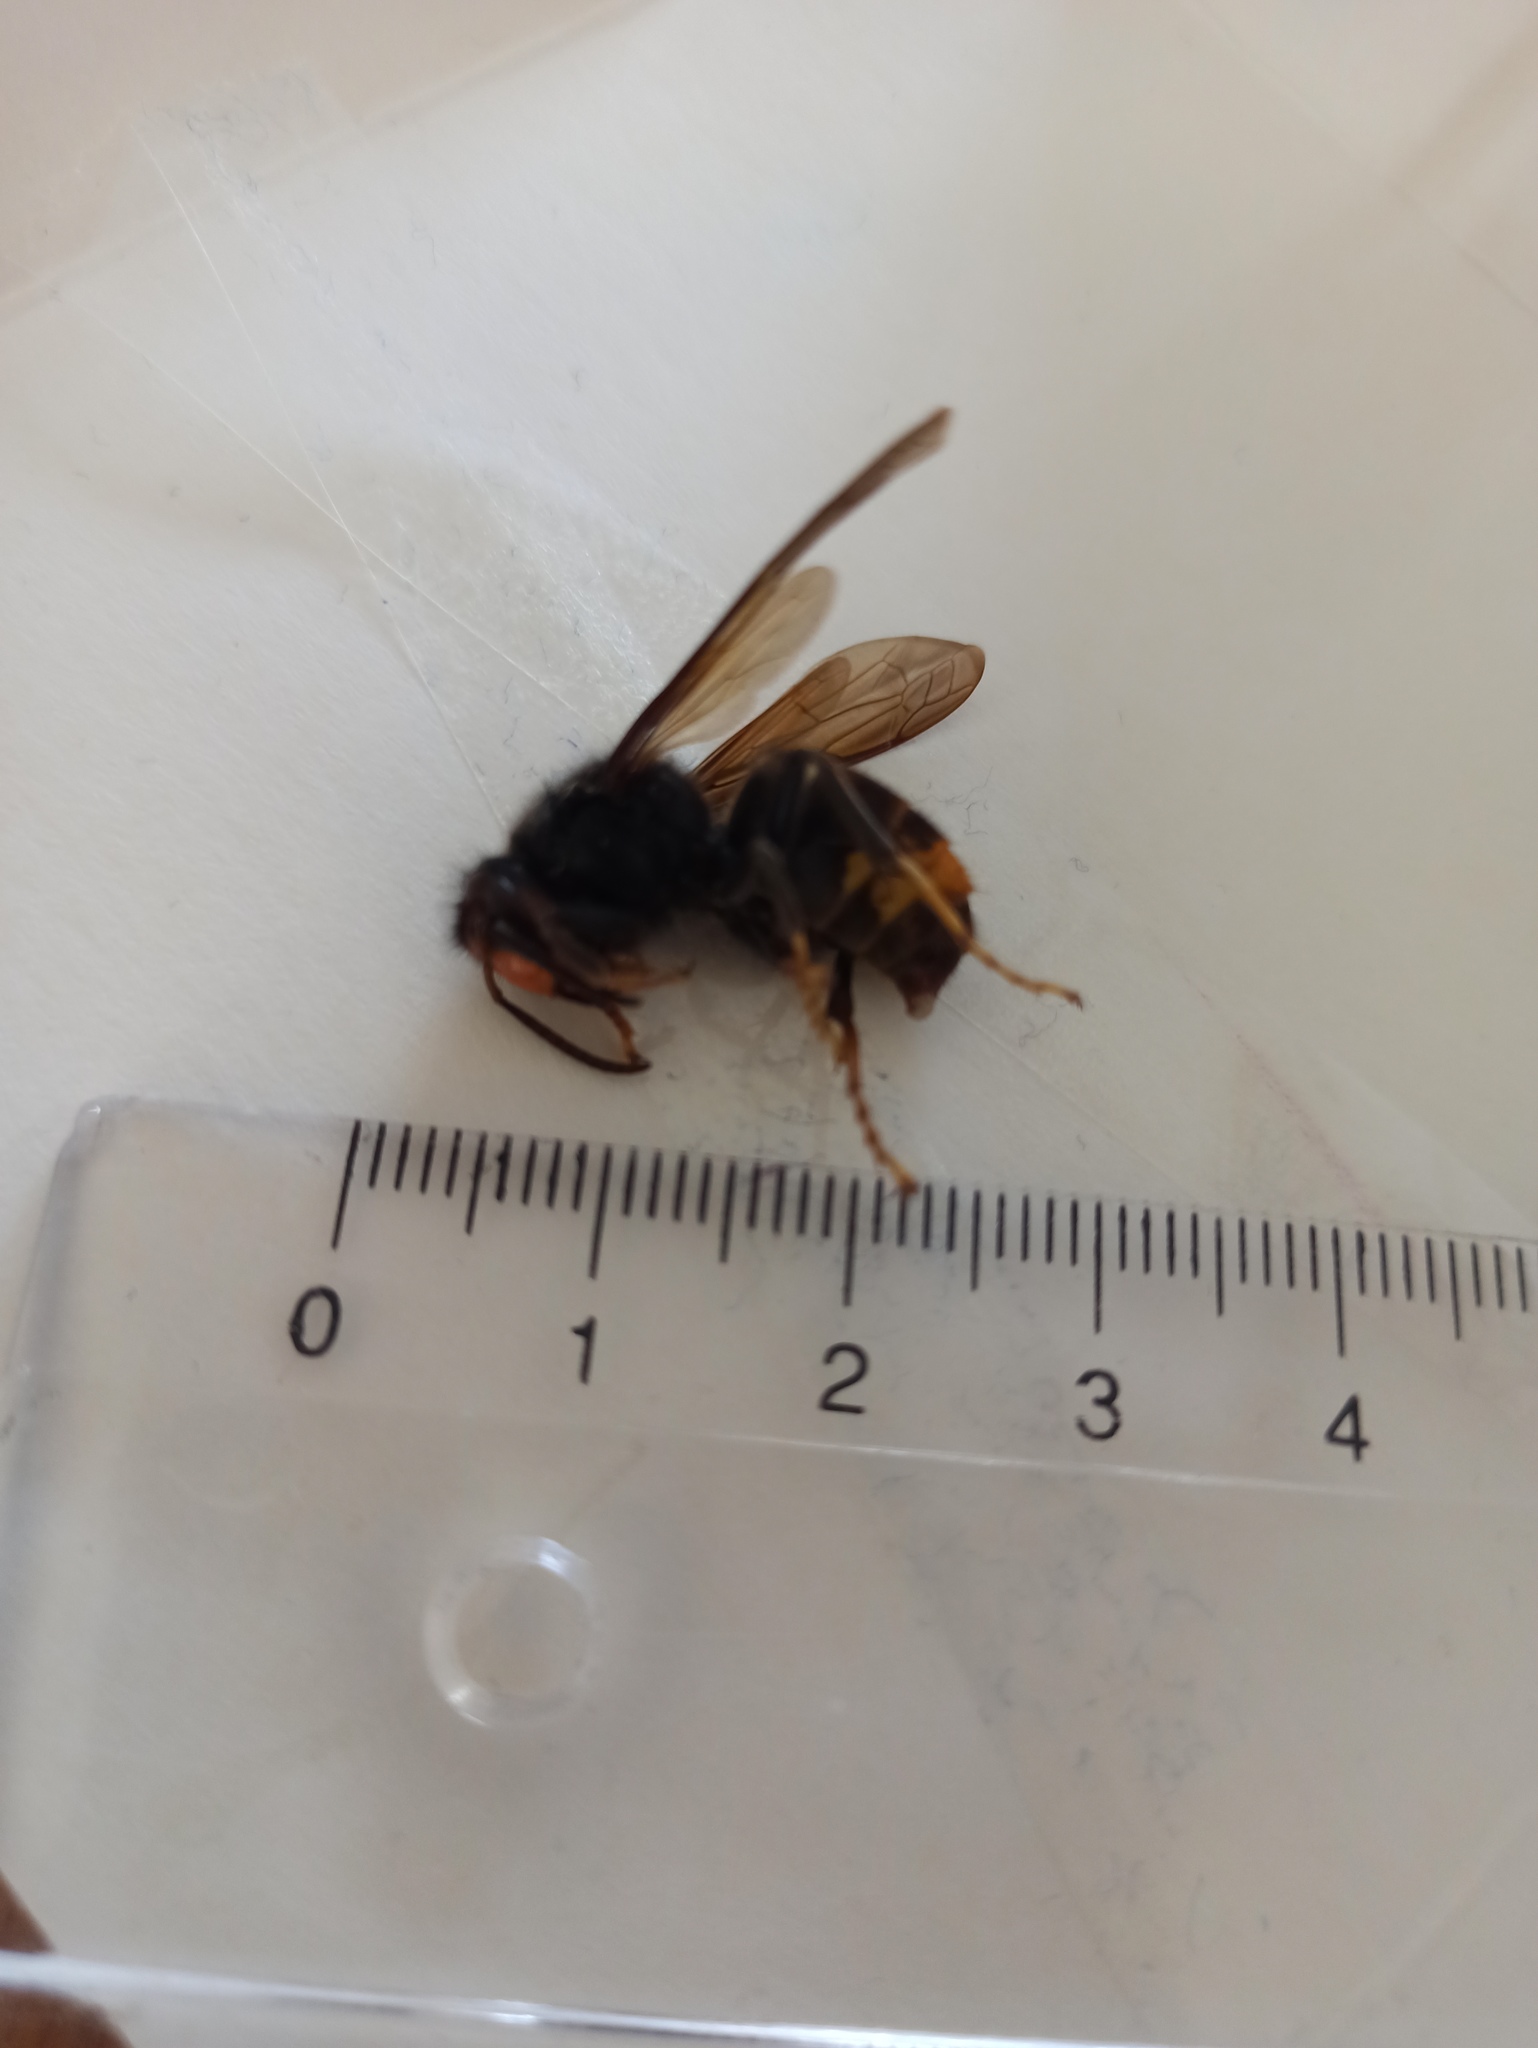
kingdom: Animalia
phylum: Arthropoda
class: Insecta
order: Hymenoptera
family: Vespidae
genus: Vespa
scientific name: Vespa velutina
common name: Asian hornet
